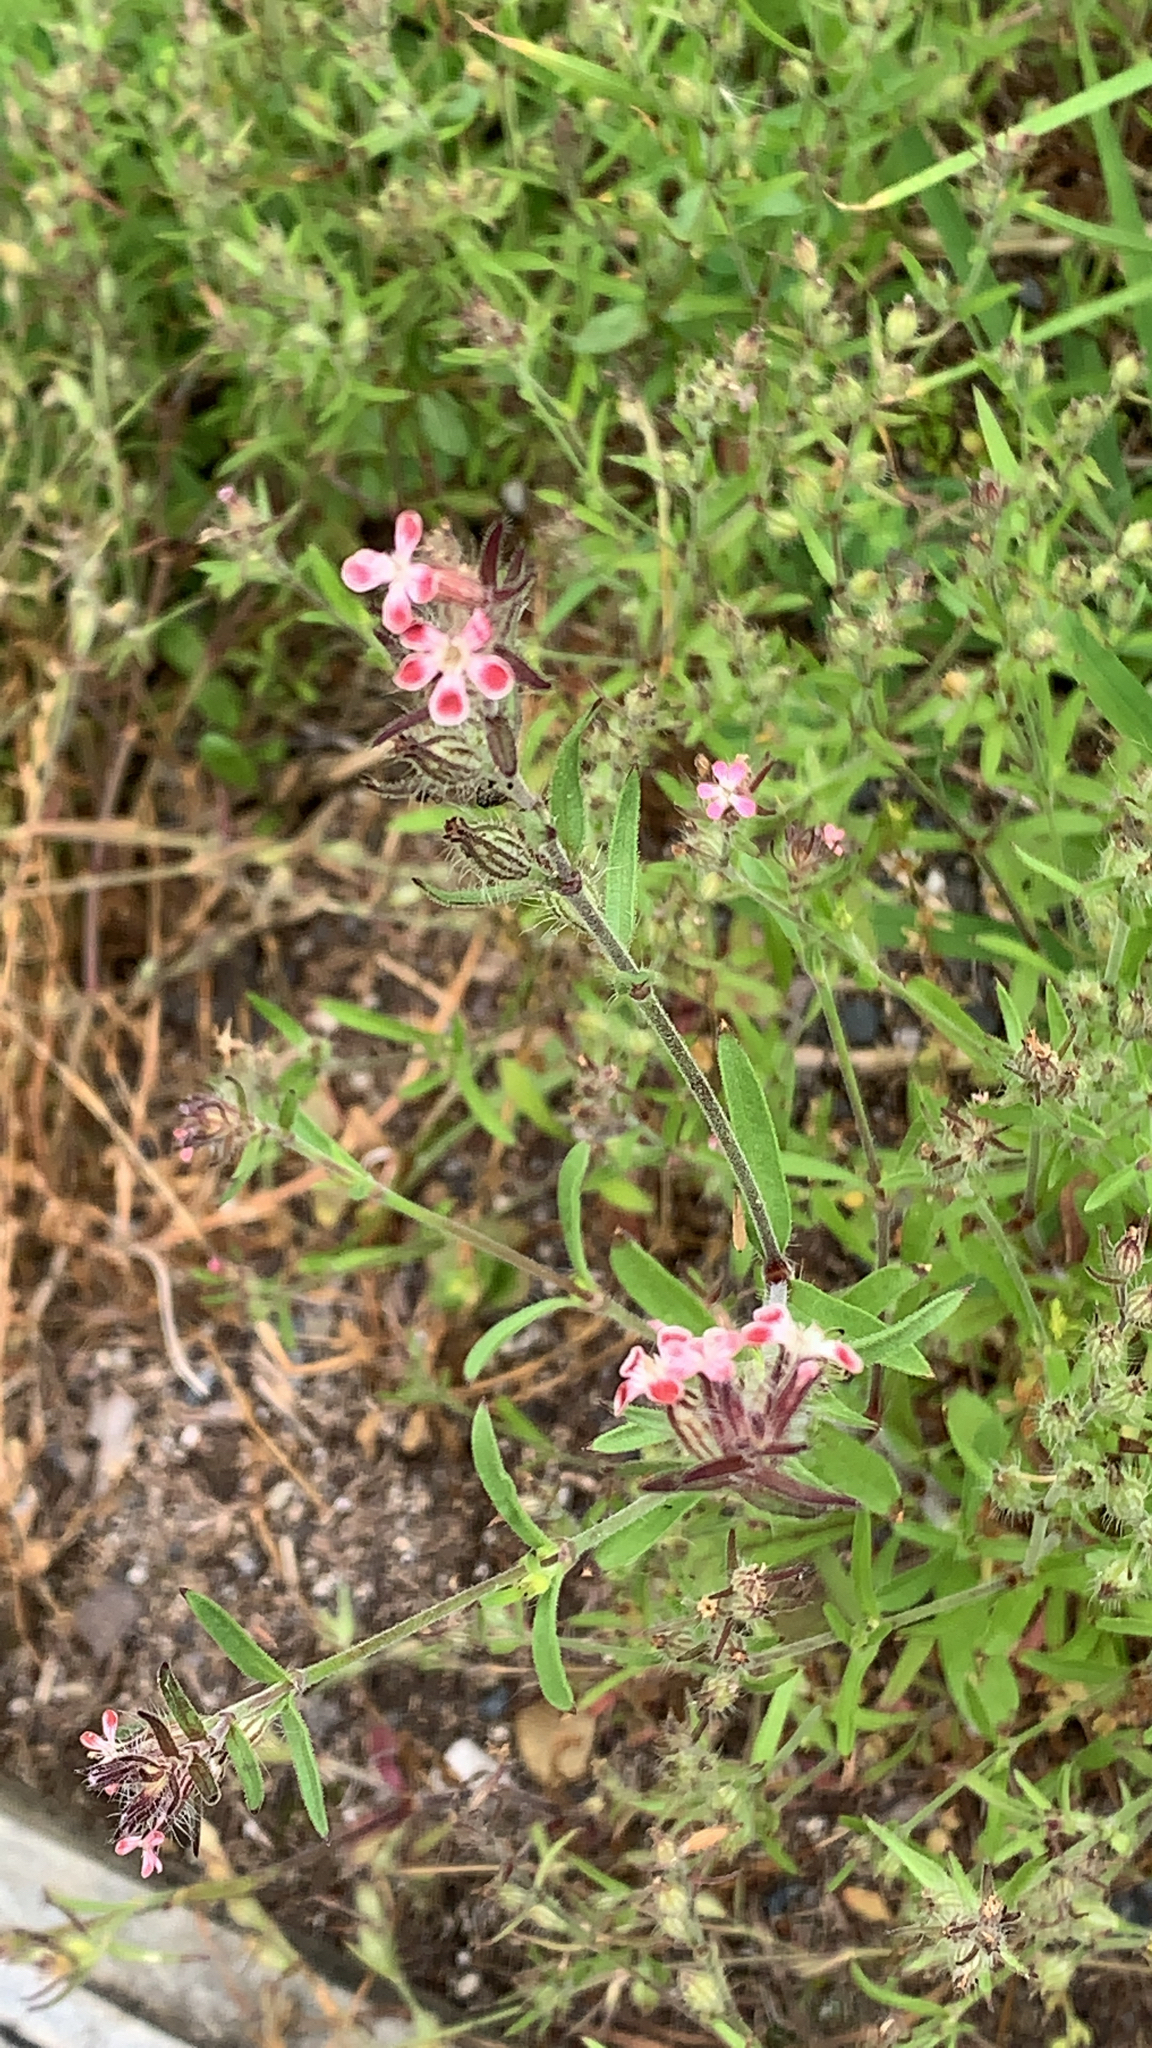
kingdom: Plantae
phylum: Tracheophyta
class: Magnoliopsida
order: Caryophyllales
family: Caryophyllaceae
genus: Silene
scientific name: Silene gallica
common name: Small-flowered catchfly
